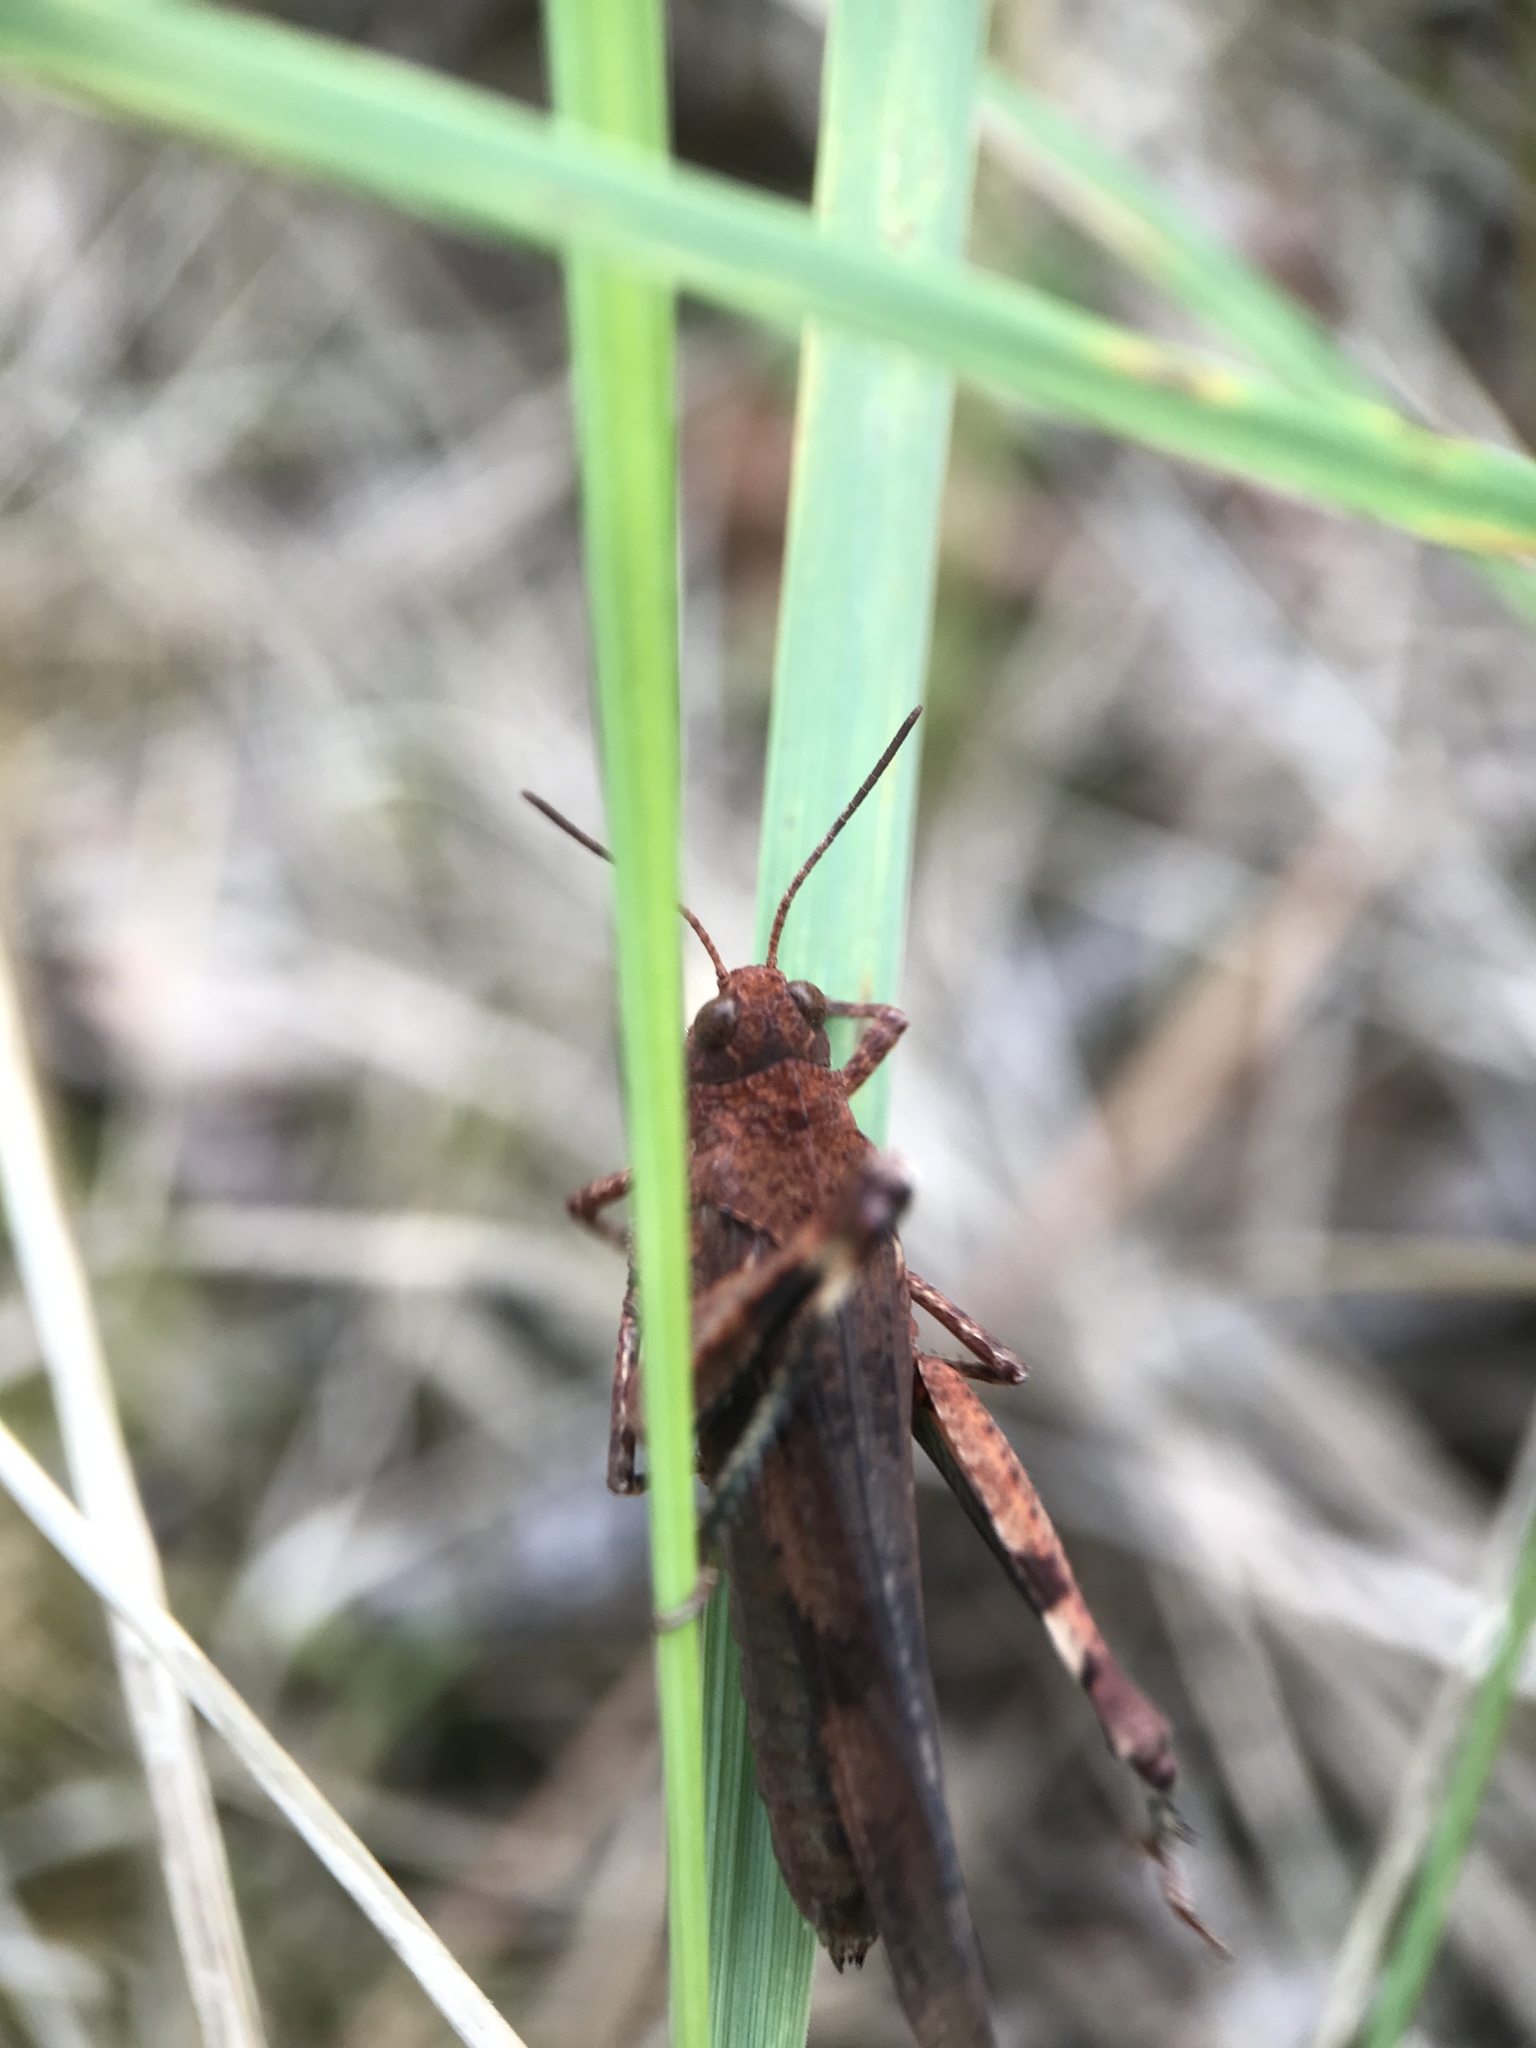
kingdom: Animalia
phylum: Arthropoda
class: Insecta
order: Orthoptera
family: Acrididae
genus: Oedipoda
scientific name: Oedipoda caerulescens
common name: Blue-winged grasshopper
